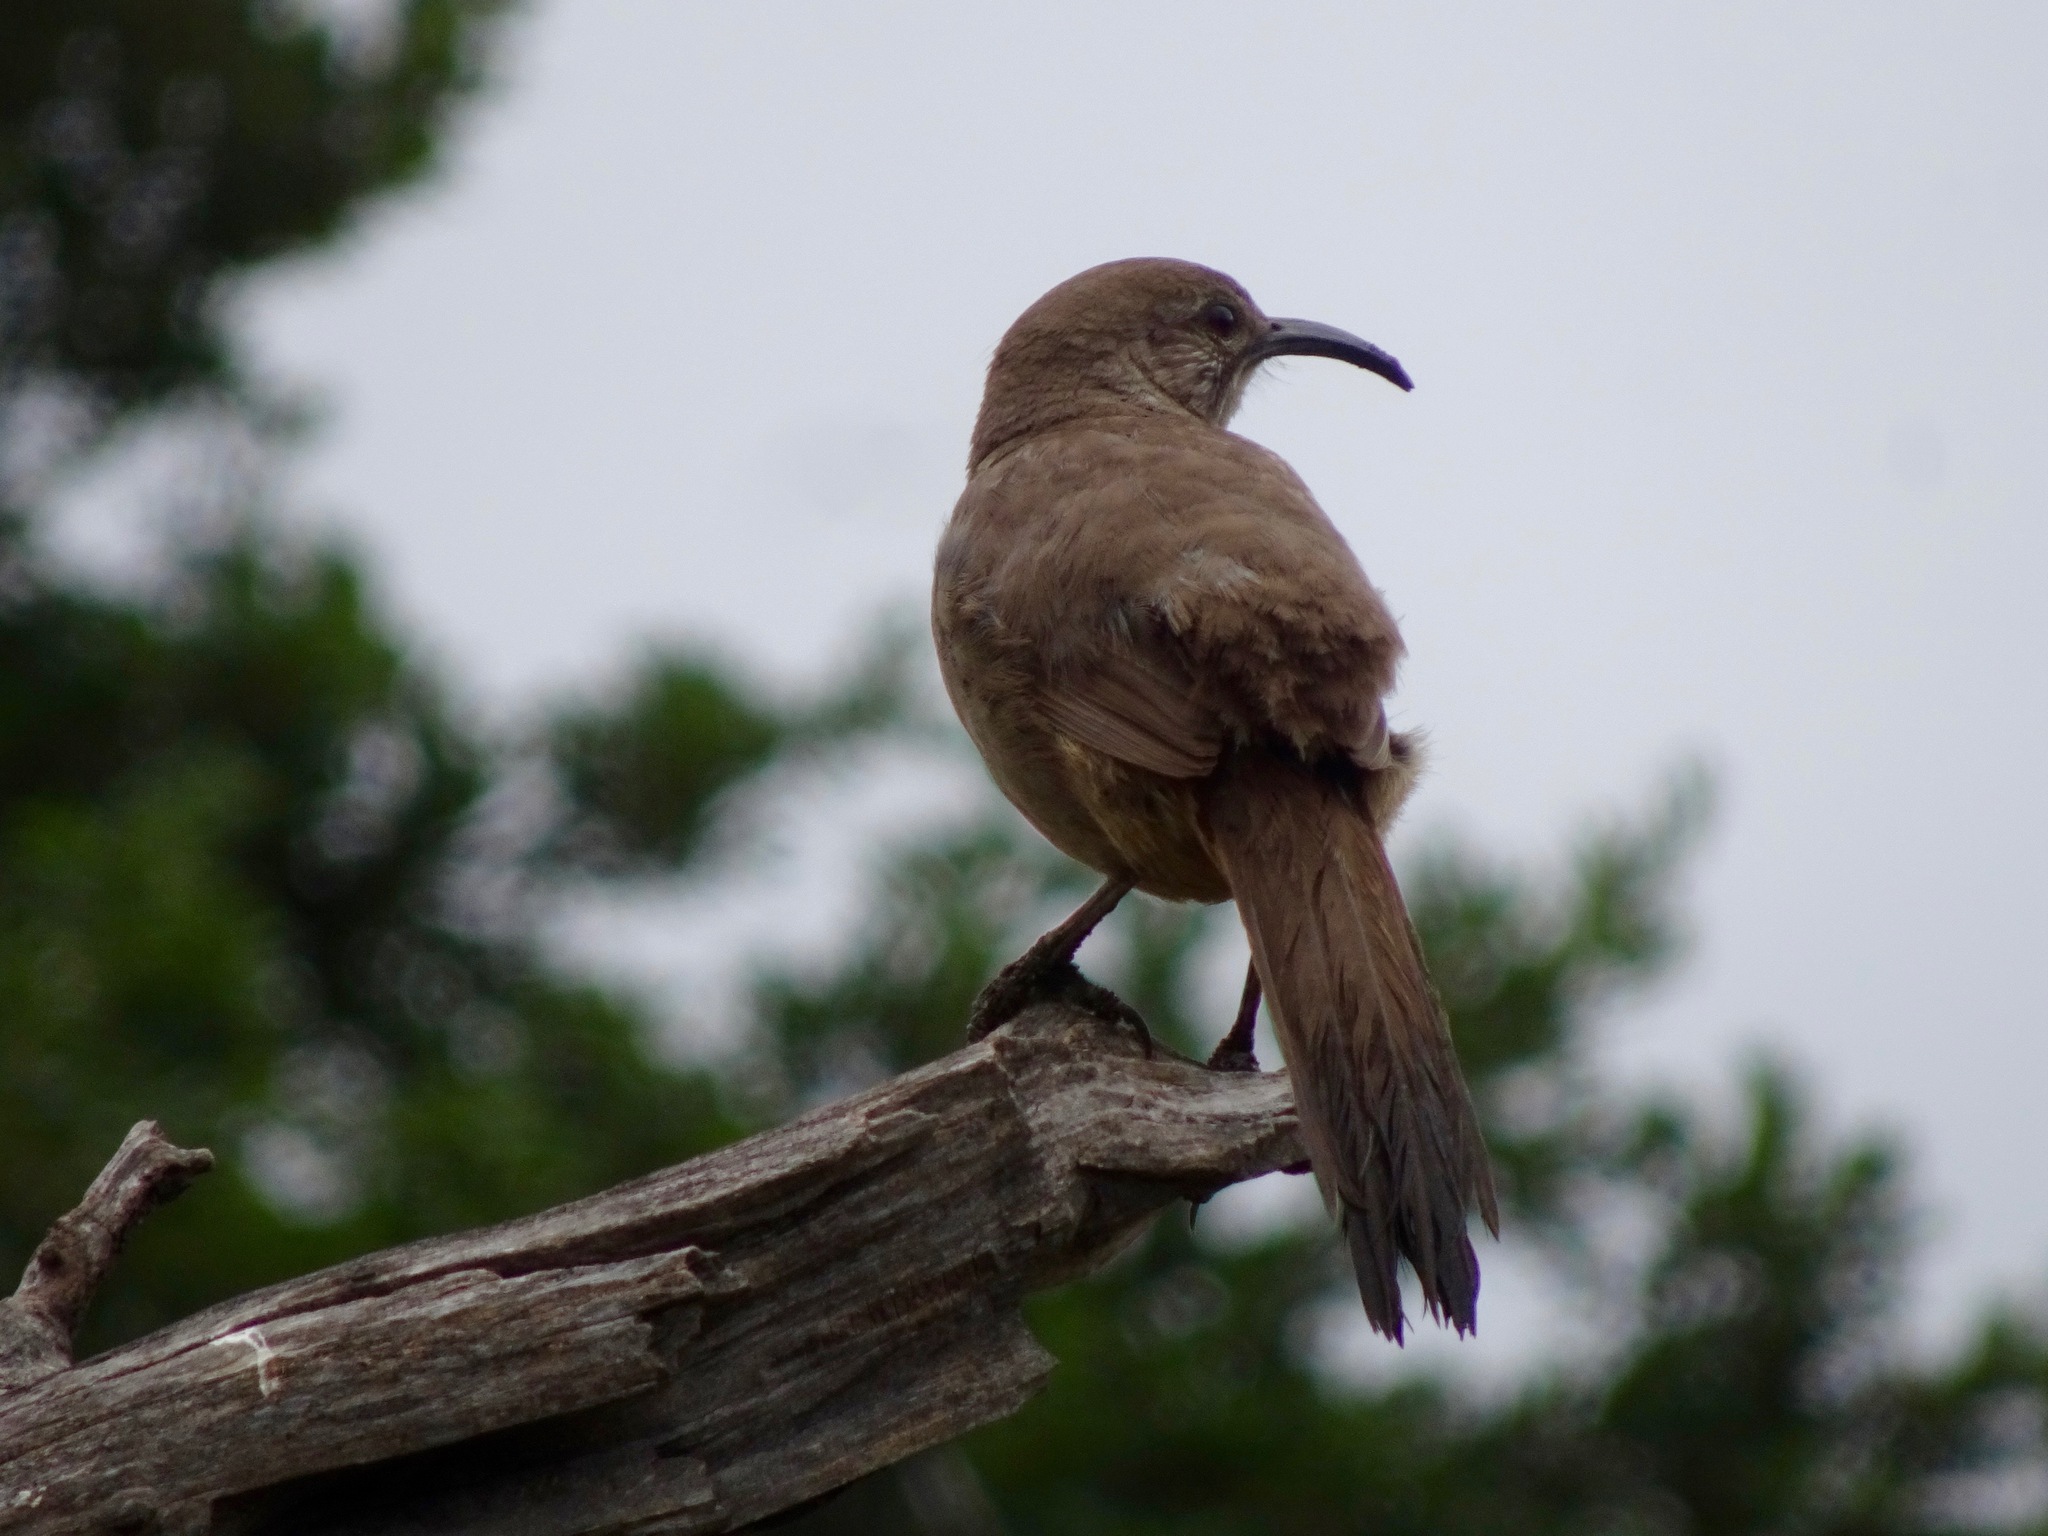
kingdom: Animalia
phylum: Chordata
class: Aves
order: Passeriformes
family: Mimidae
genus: Toxostoma
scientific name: Toxostoma redivivum
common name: California thrasher
